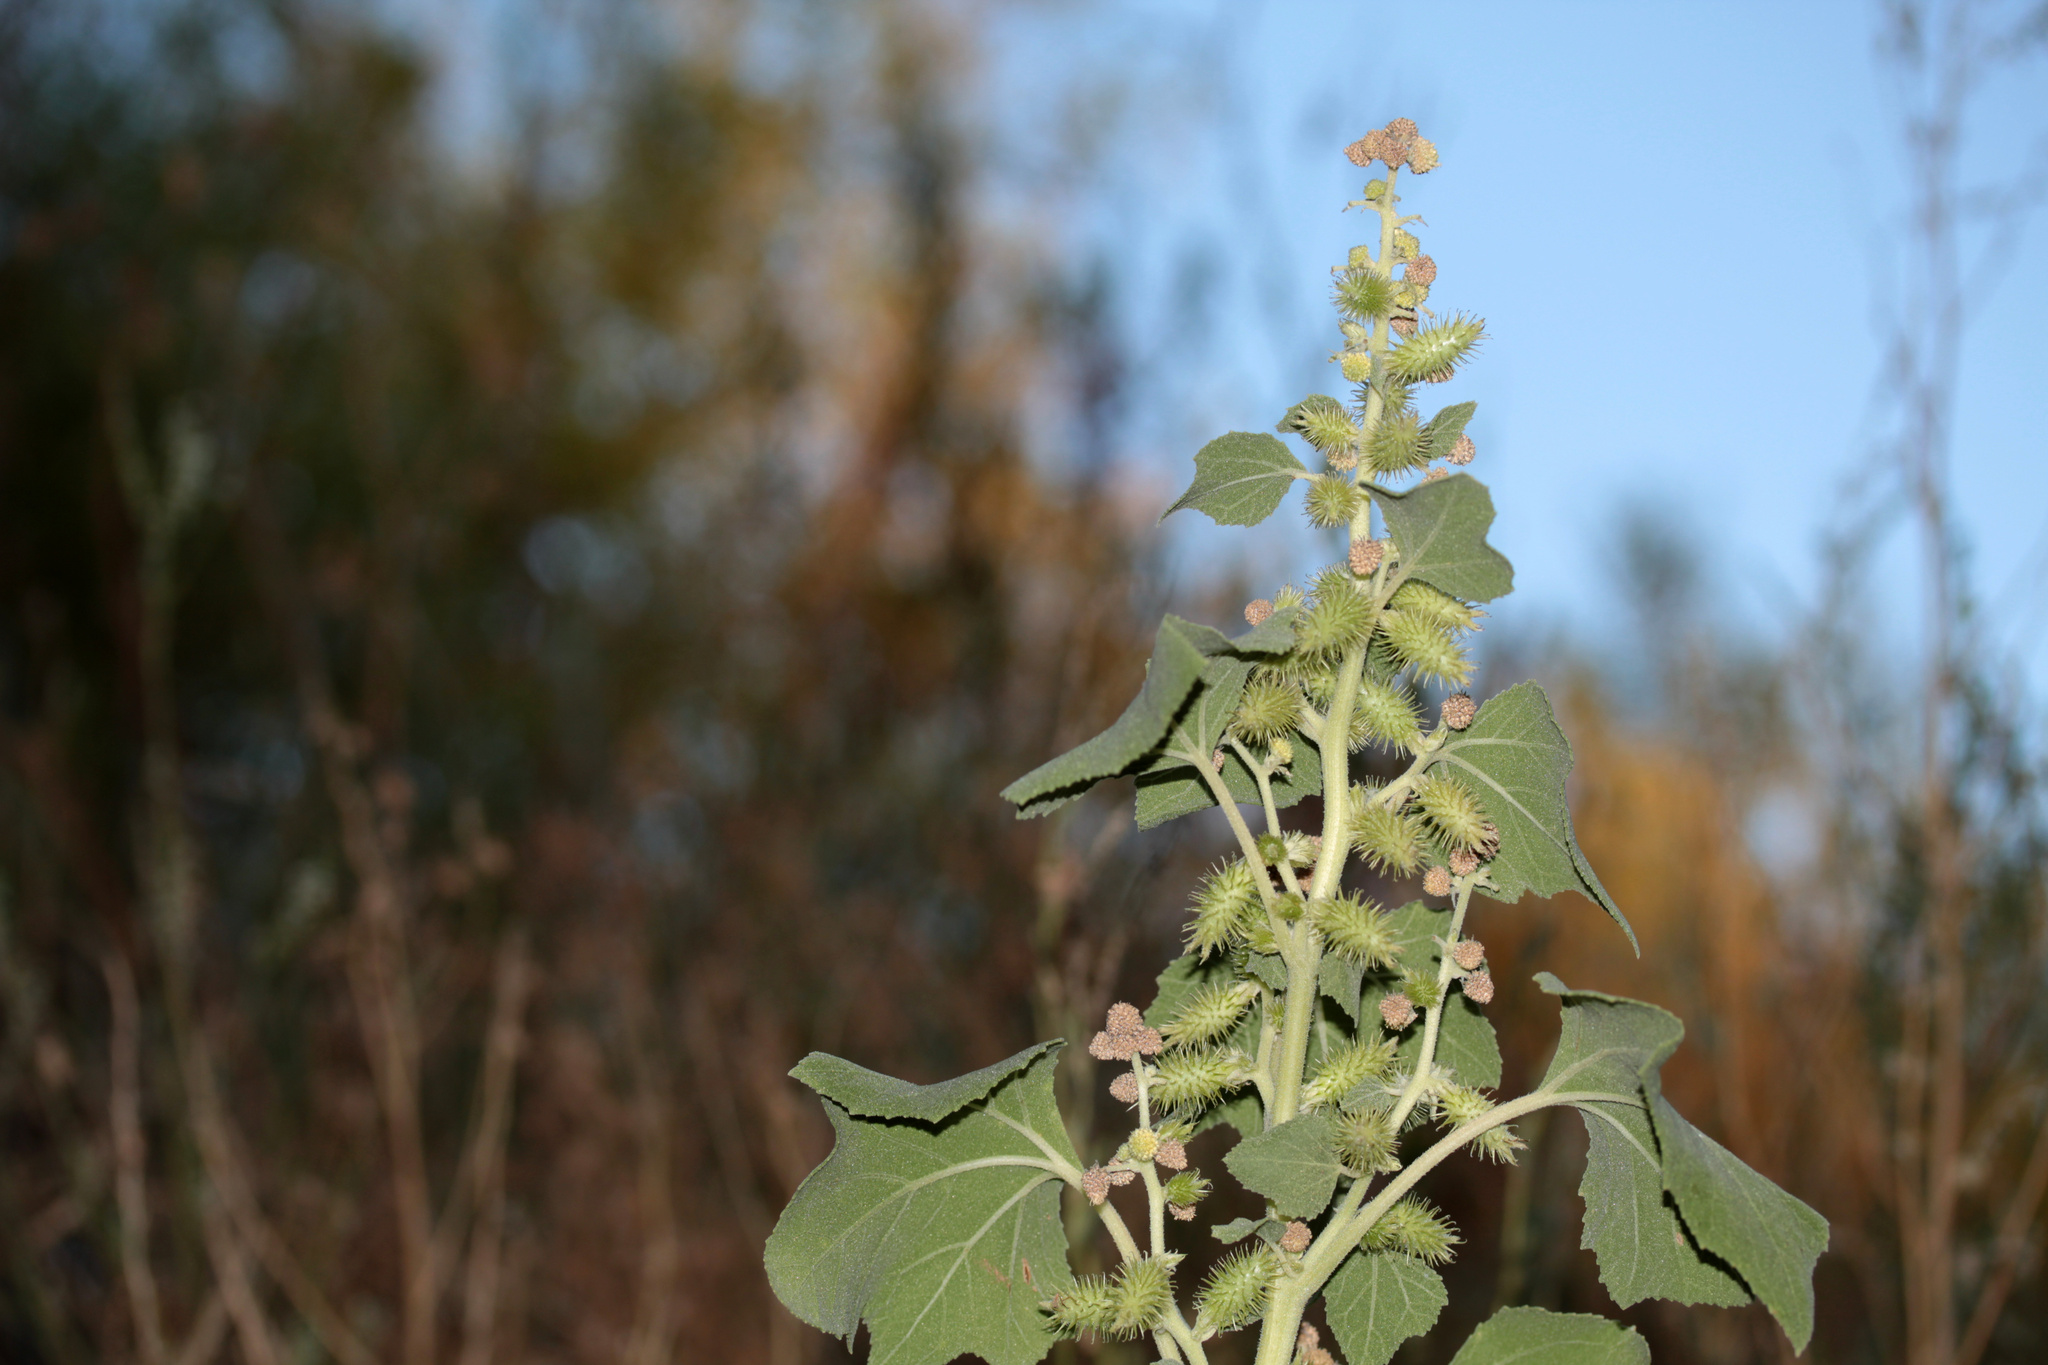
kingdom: Plantae
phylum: Tracheophyta
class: Magnoliopsida
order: Asterales
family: Asteraceae
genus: Xanthium
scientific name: Xanthium strumarium
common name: Rough cocklebur
